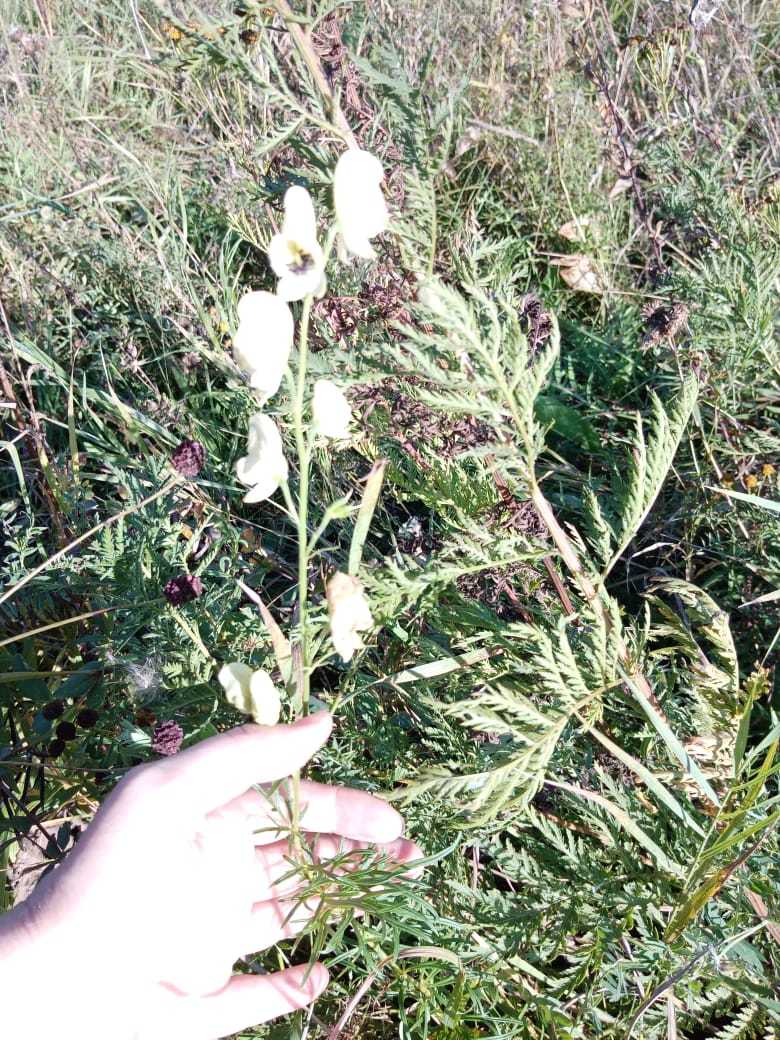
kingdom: Plantae
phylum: Tracheophyta
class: Magnoliopsida
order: Ranunculales
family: Ranunculaceae
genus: Aconitum
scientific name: Aconitum anthora
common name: Yellow monkshood
